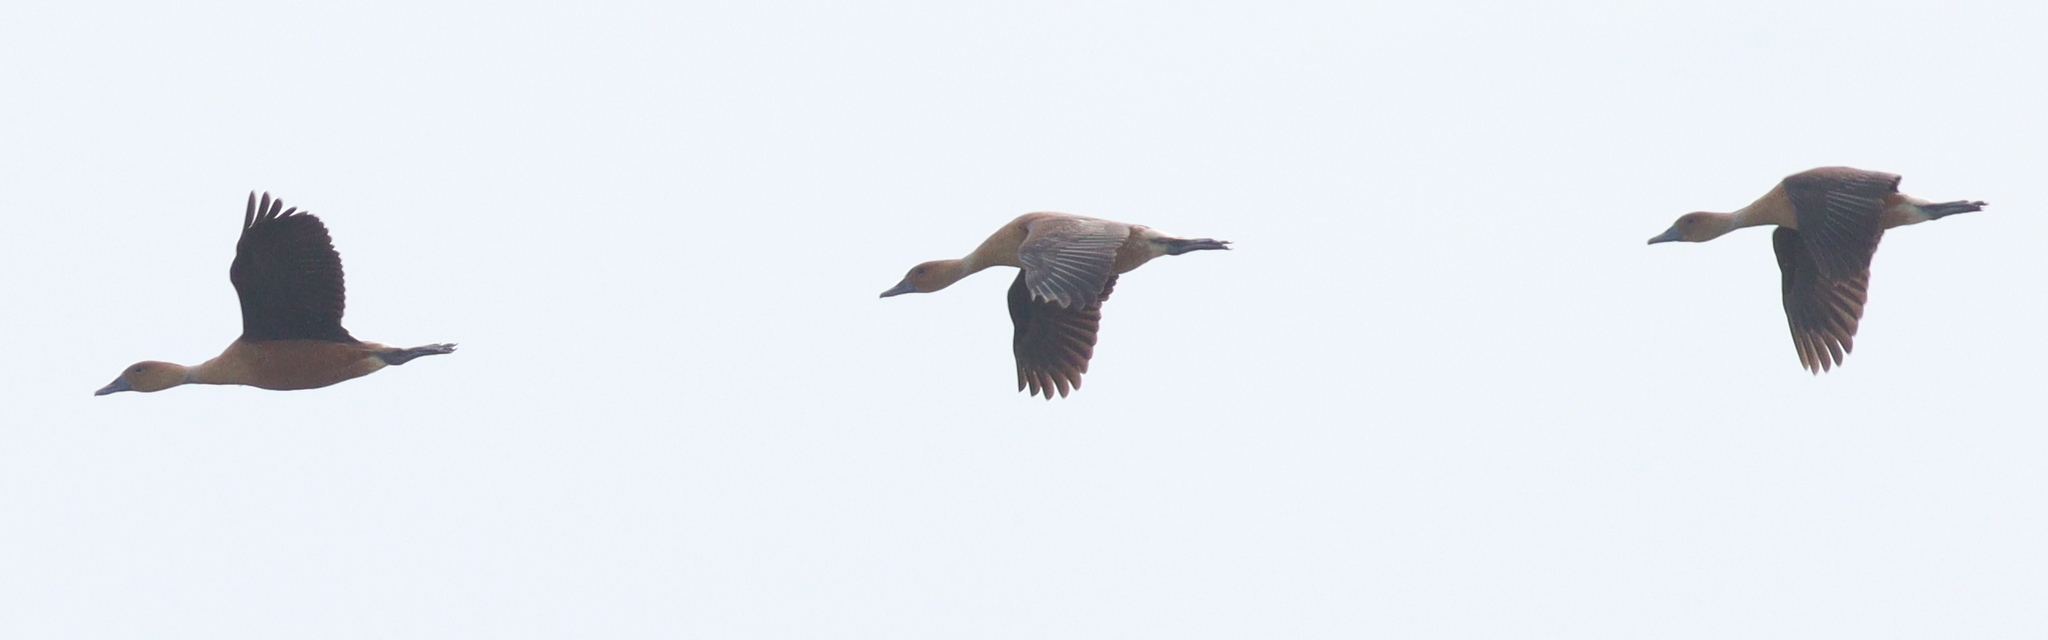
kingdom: Animalia
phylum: Chordata
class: Aves
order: Anseriformes
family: Anatidae
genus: Dendrocygna
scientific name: Dendrocygna bicolor
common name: Fulvous whistling duck
